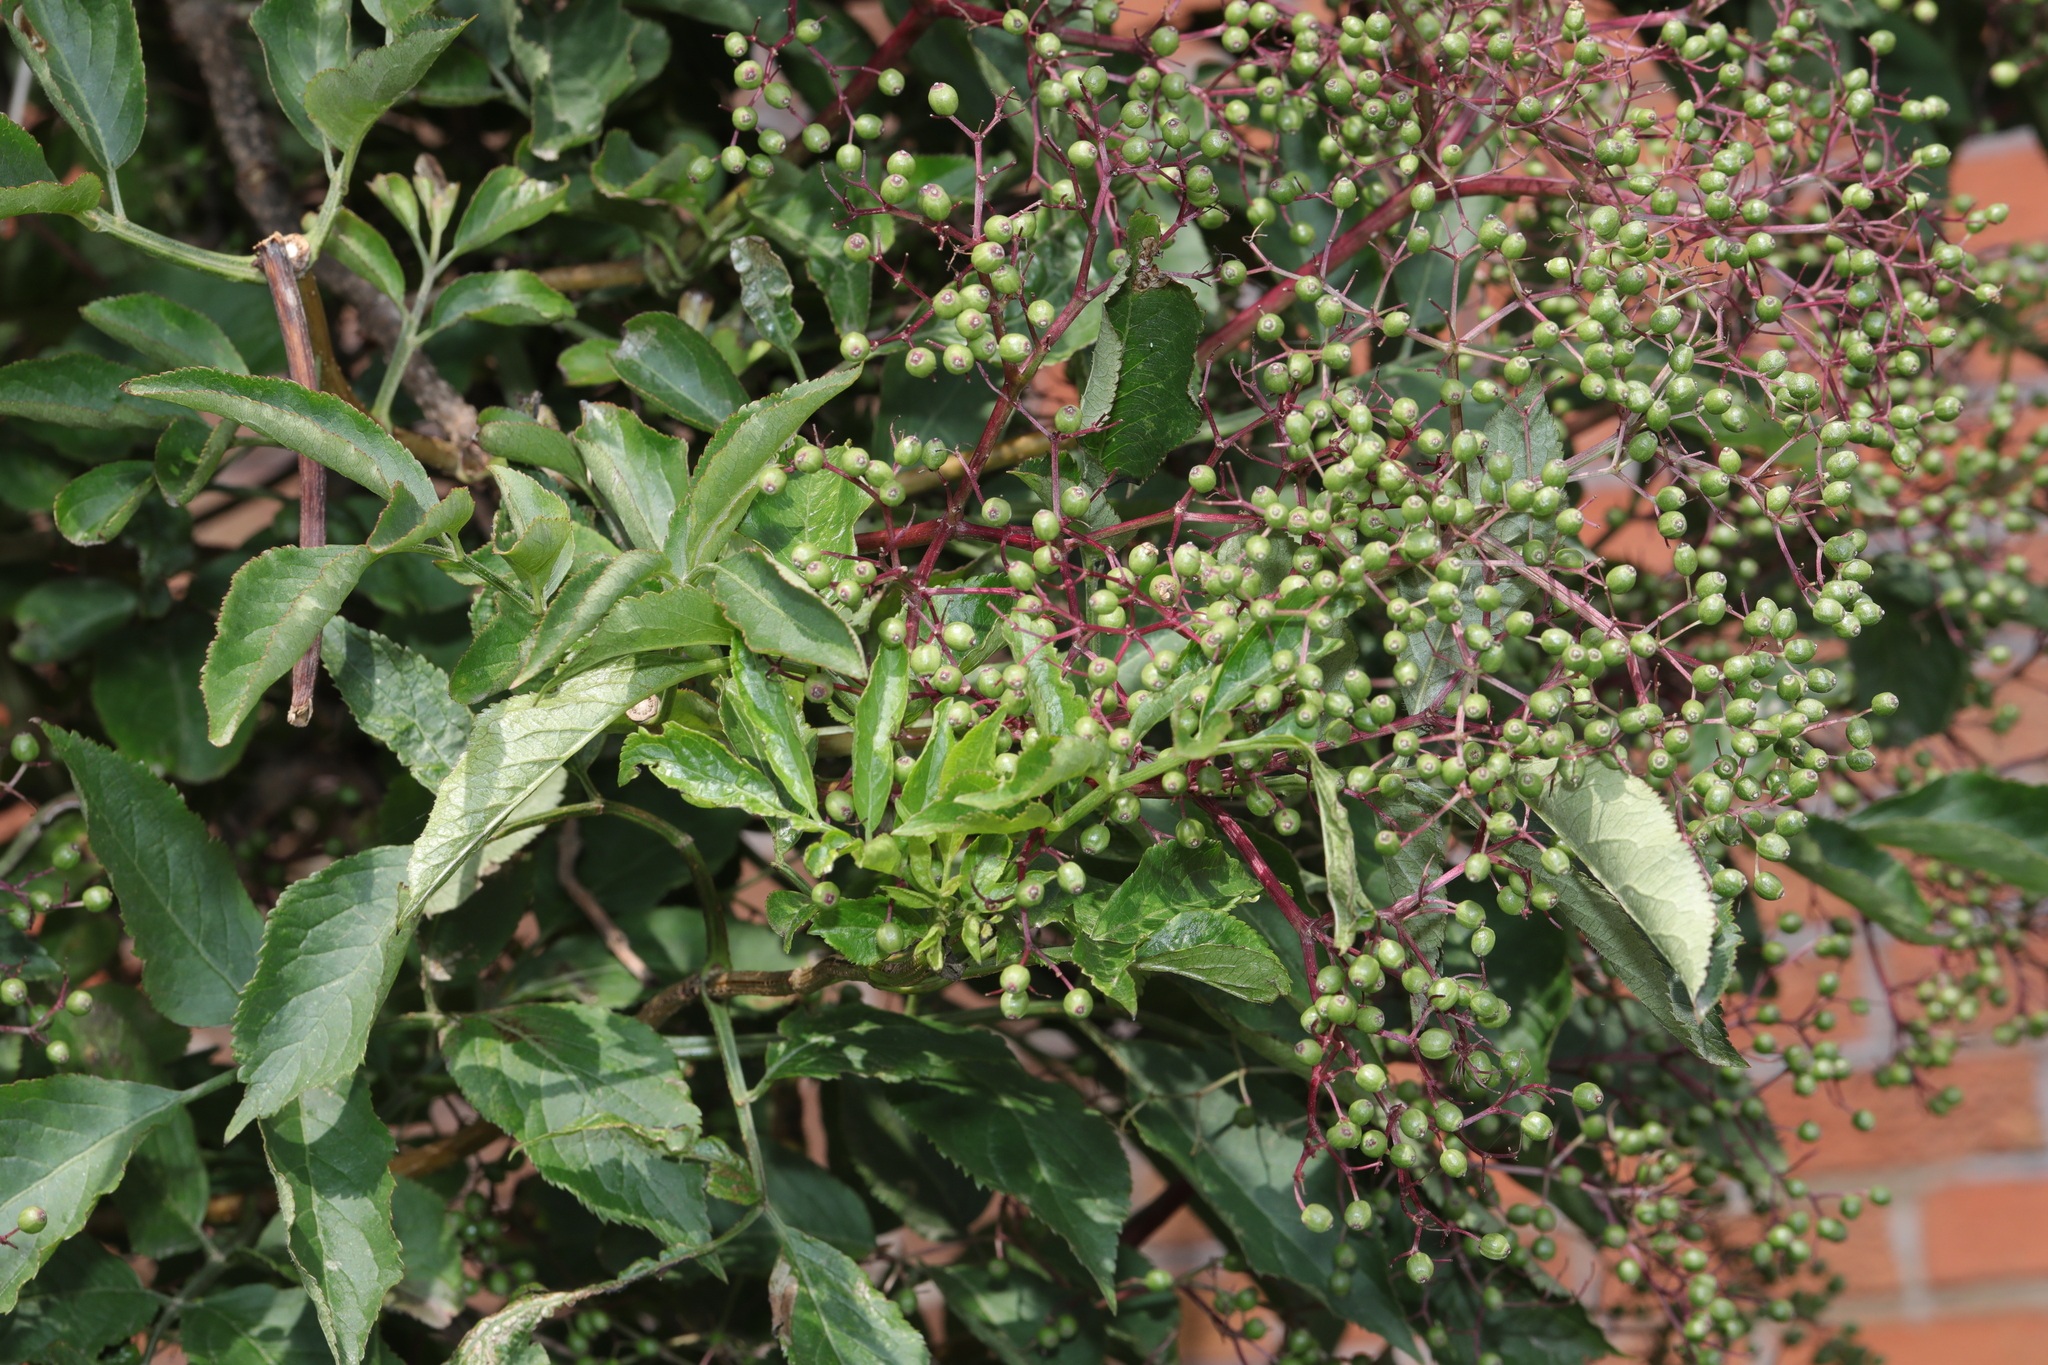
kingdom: Plantae
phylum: Tracheophyta
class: Magnoliopsida
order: Dipsacales
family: Viburnaceae
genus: Sambucus
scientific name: Sambucus nigra
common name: Elder
